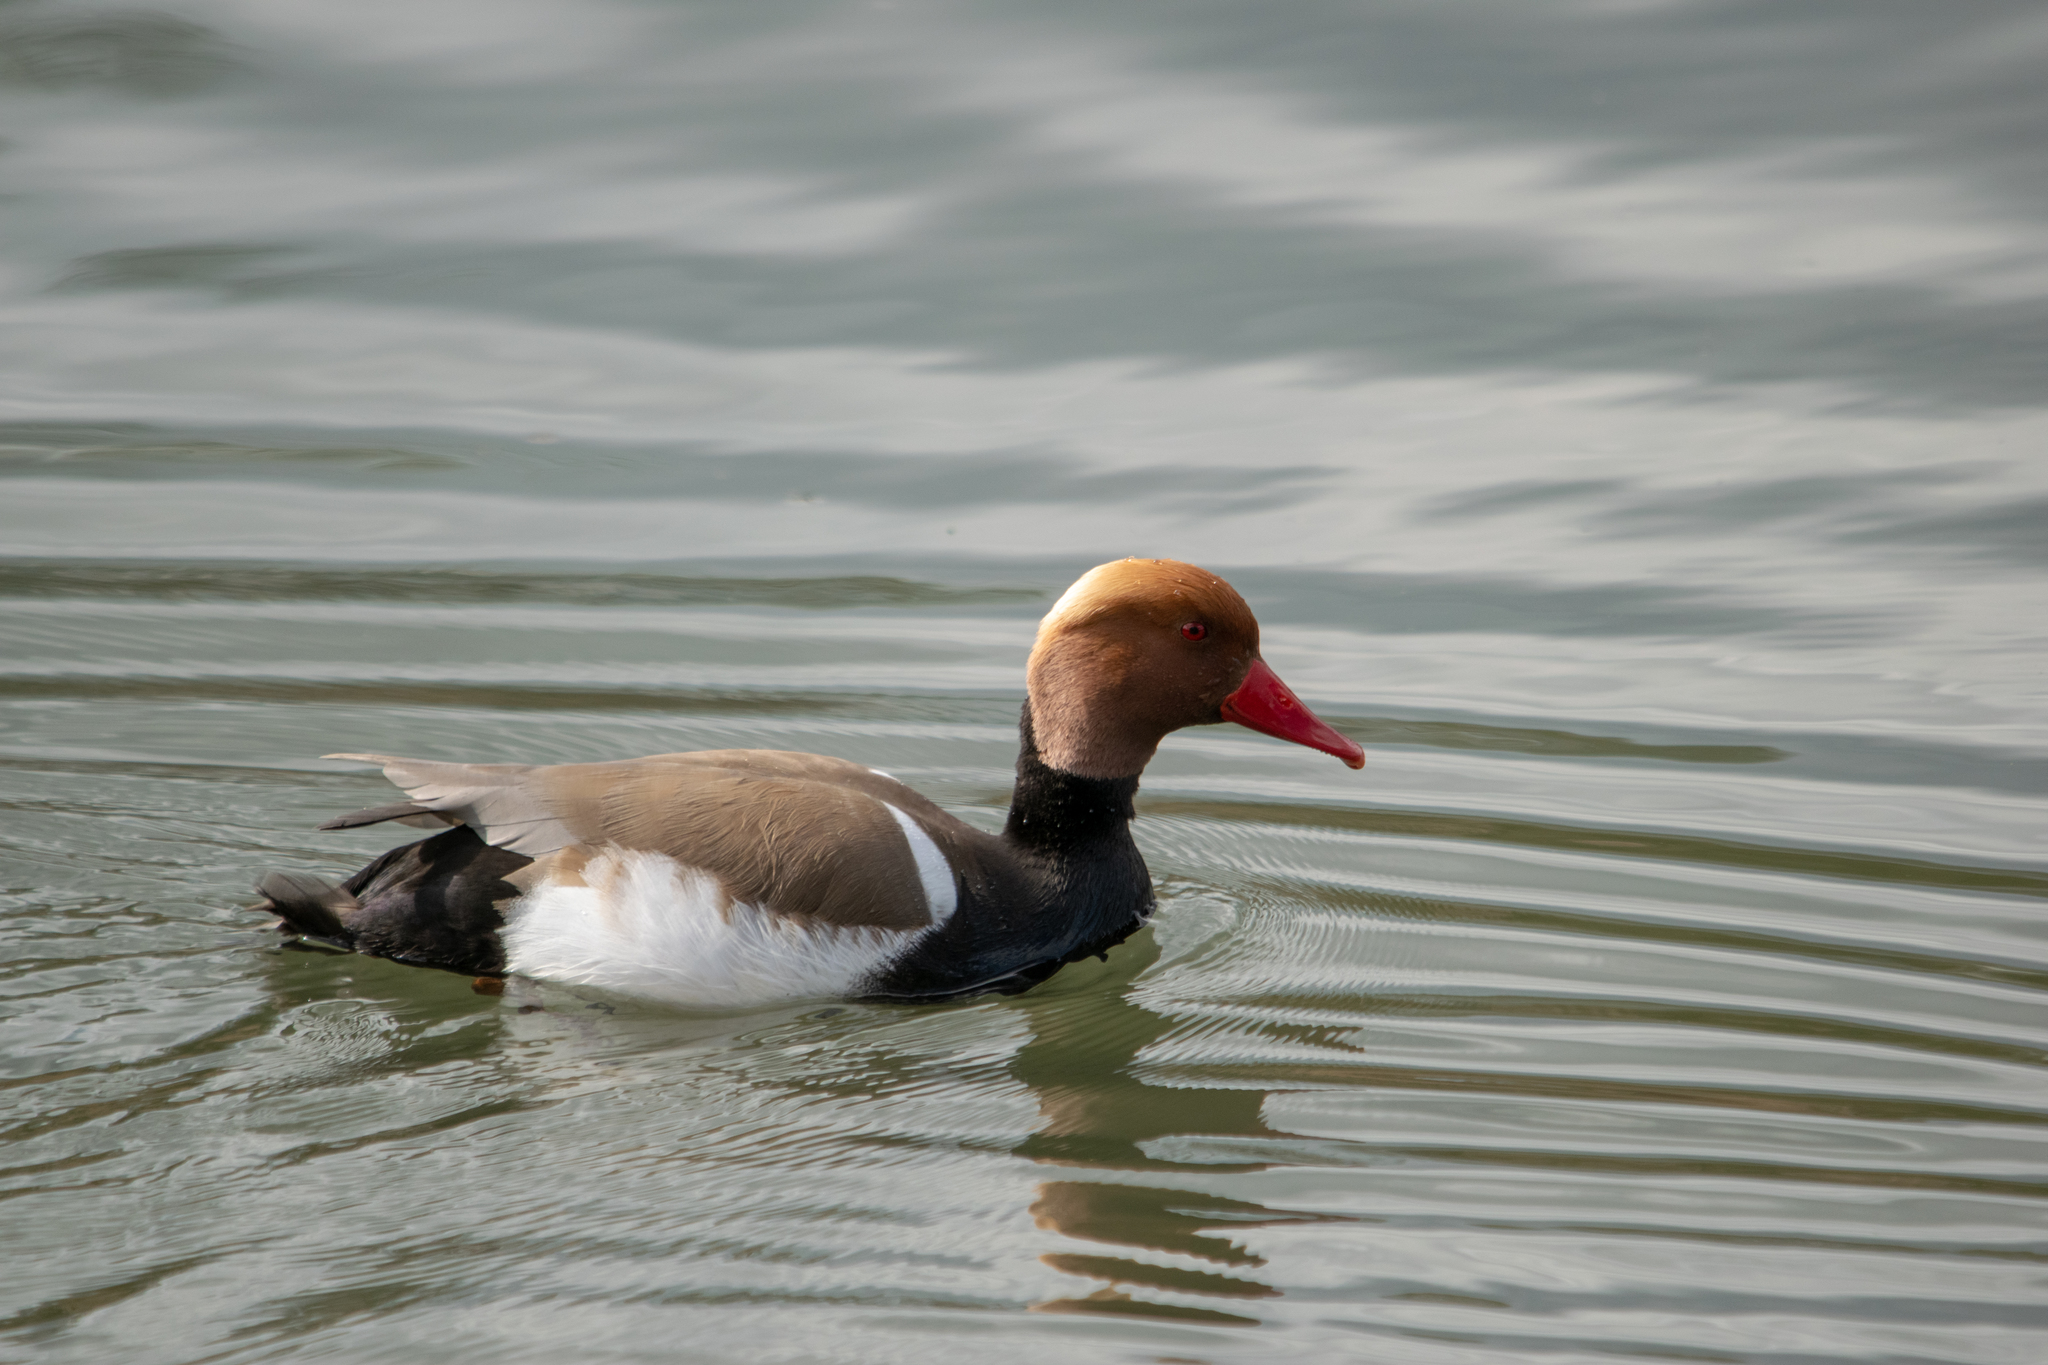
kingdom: Animalia
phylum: Chordata
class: Aves
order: Anseriformes
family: Anatidae
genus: Netta
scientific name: Netta rufina
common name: Red-crested pochard
